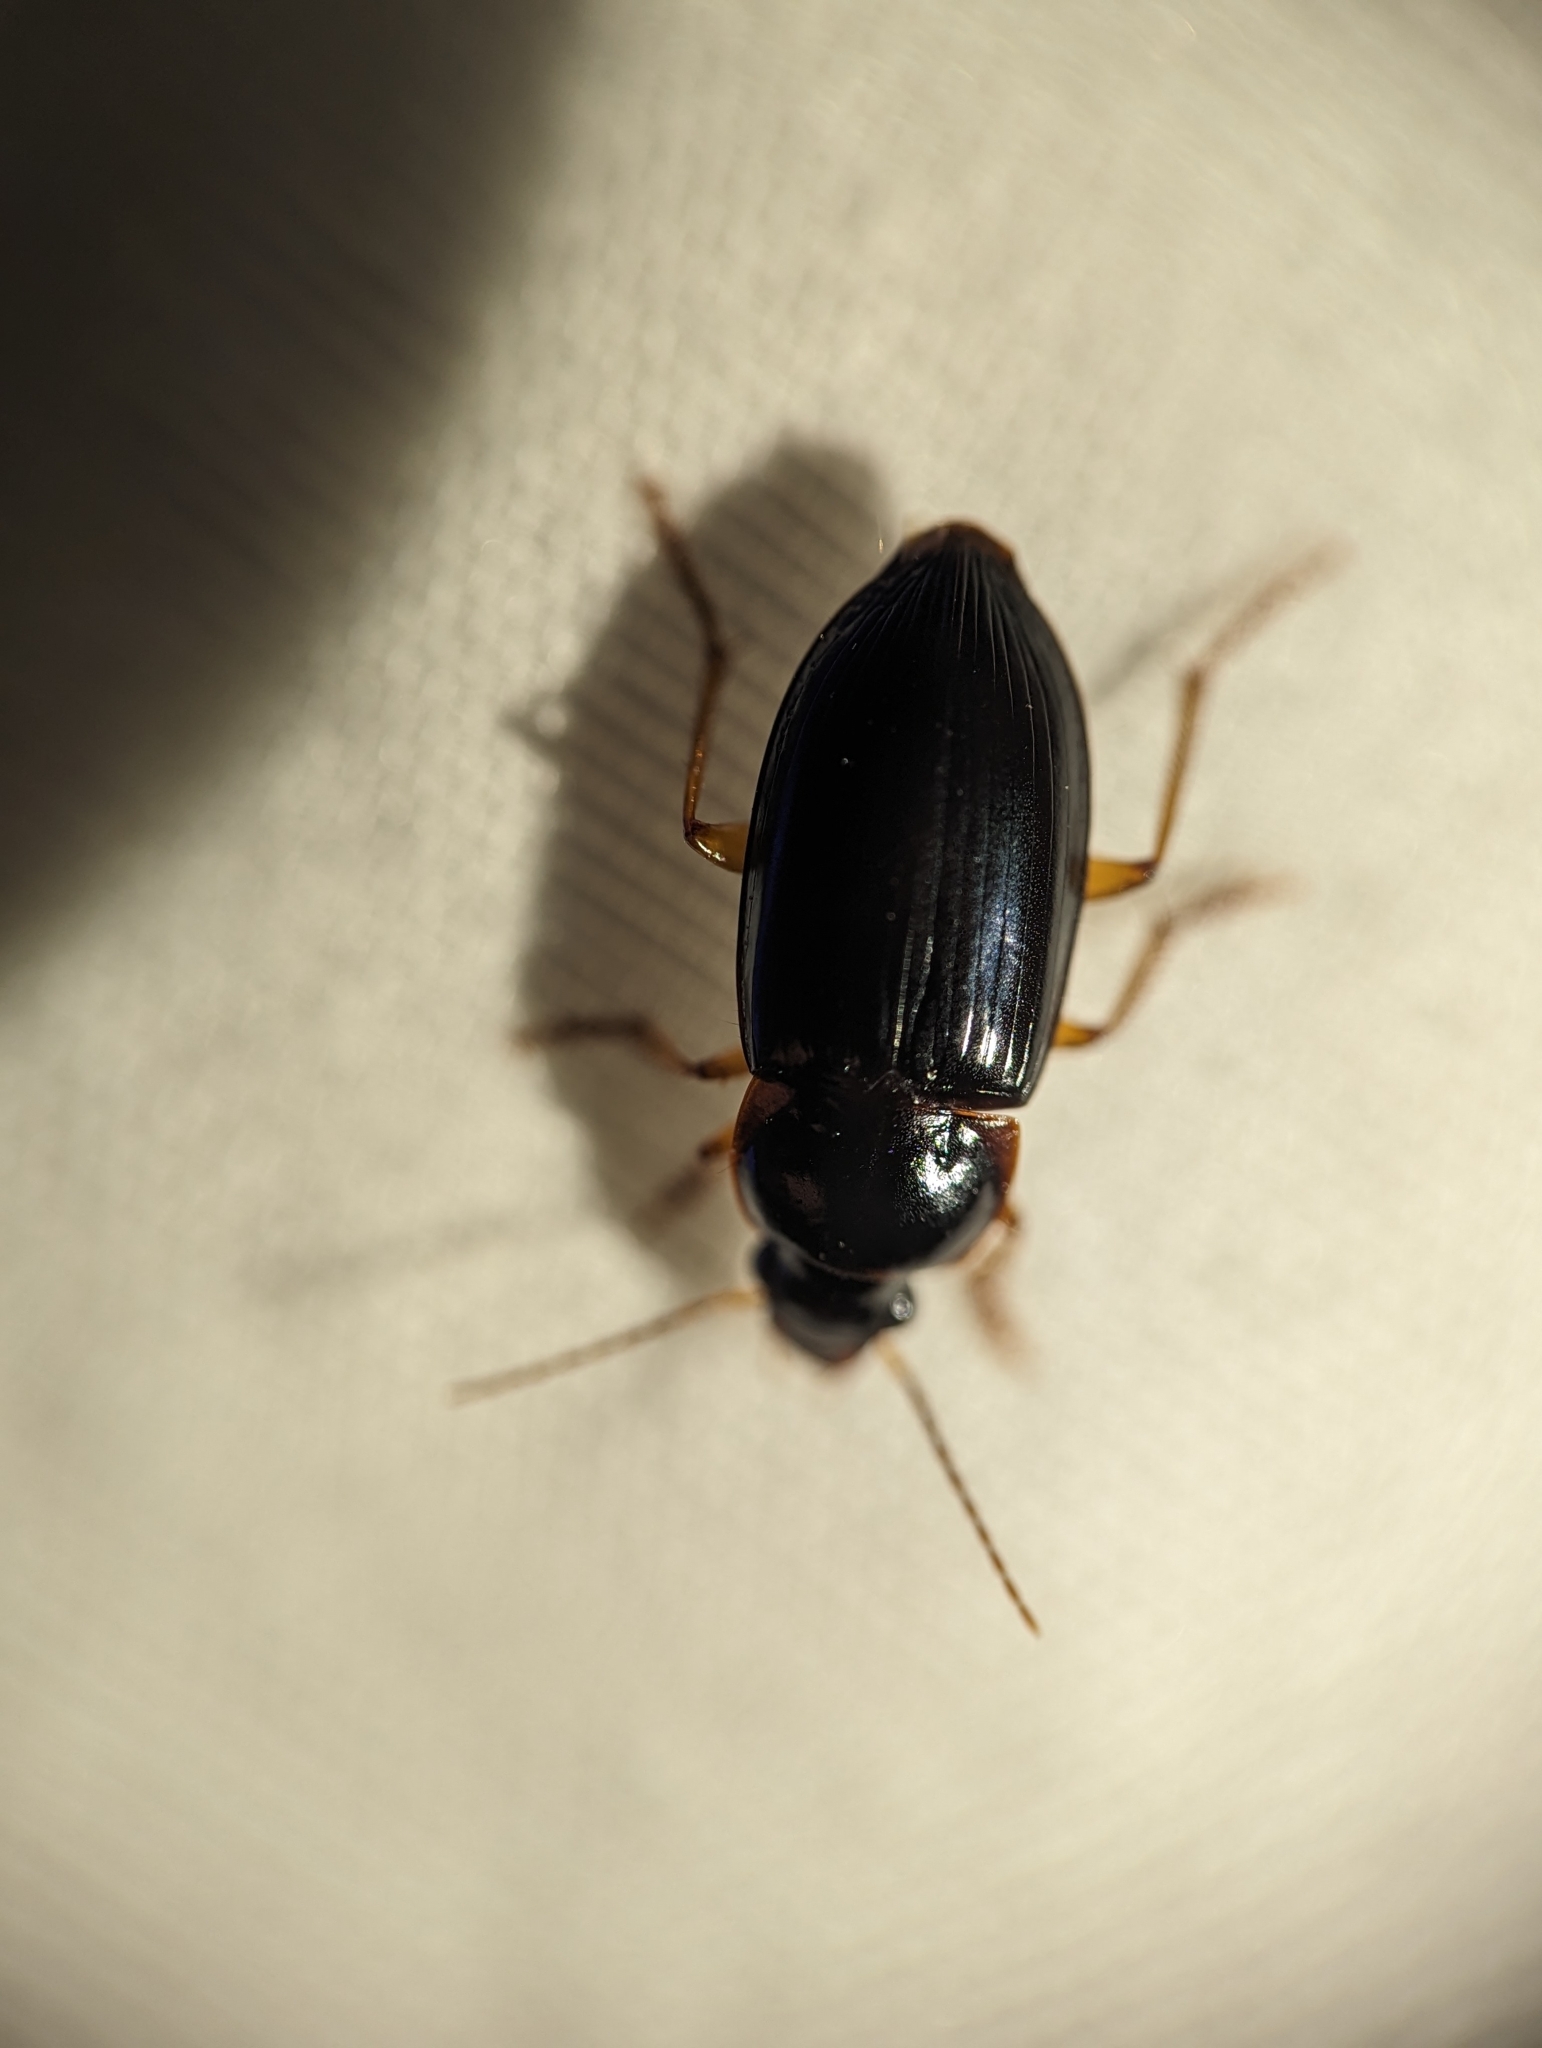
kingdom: Animalia
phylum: Arthropoda
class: Insecta
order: Coleoptera
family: Carabidae
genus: Notiobia
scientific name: Notiobia terminata
